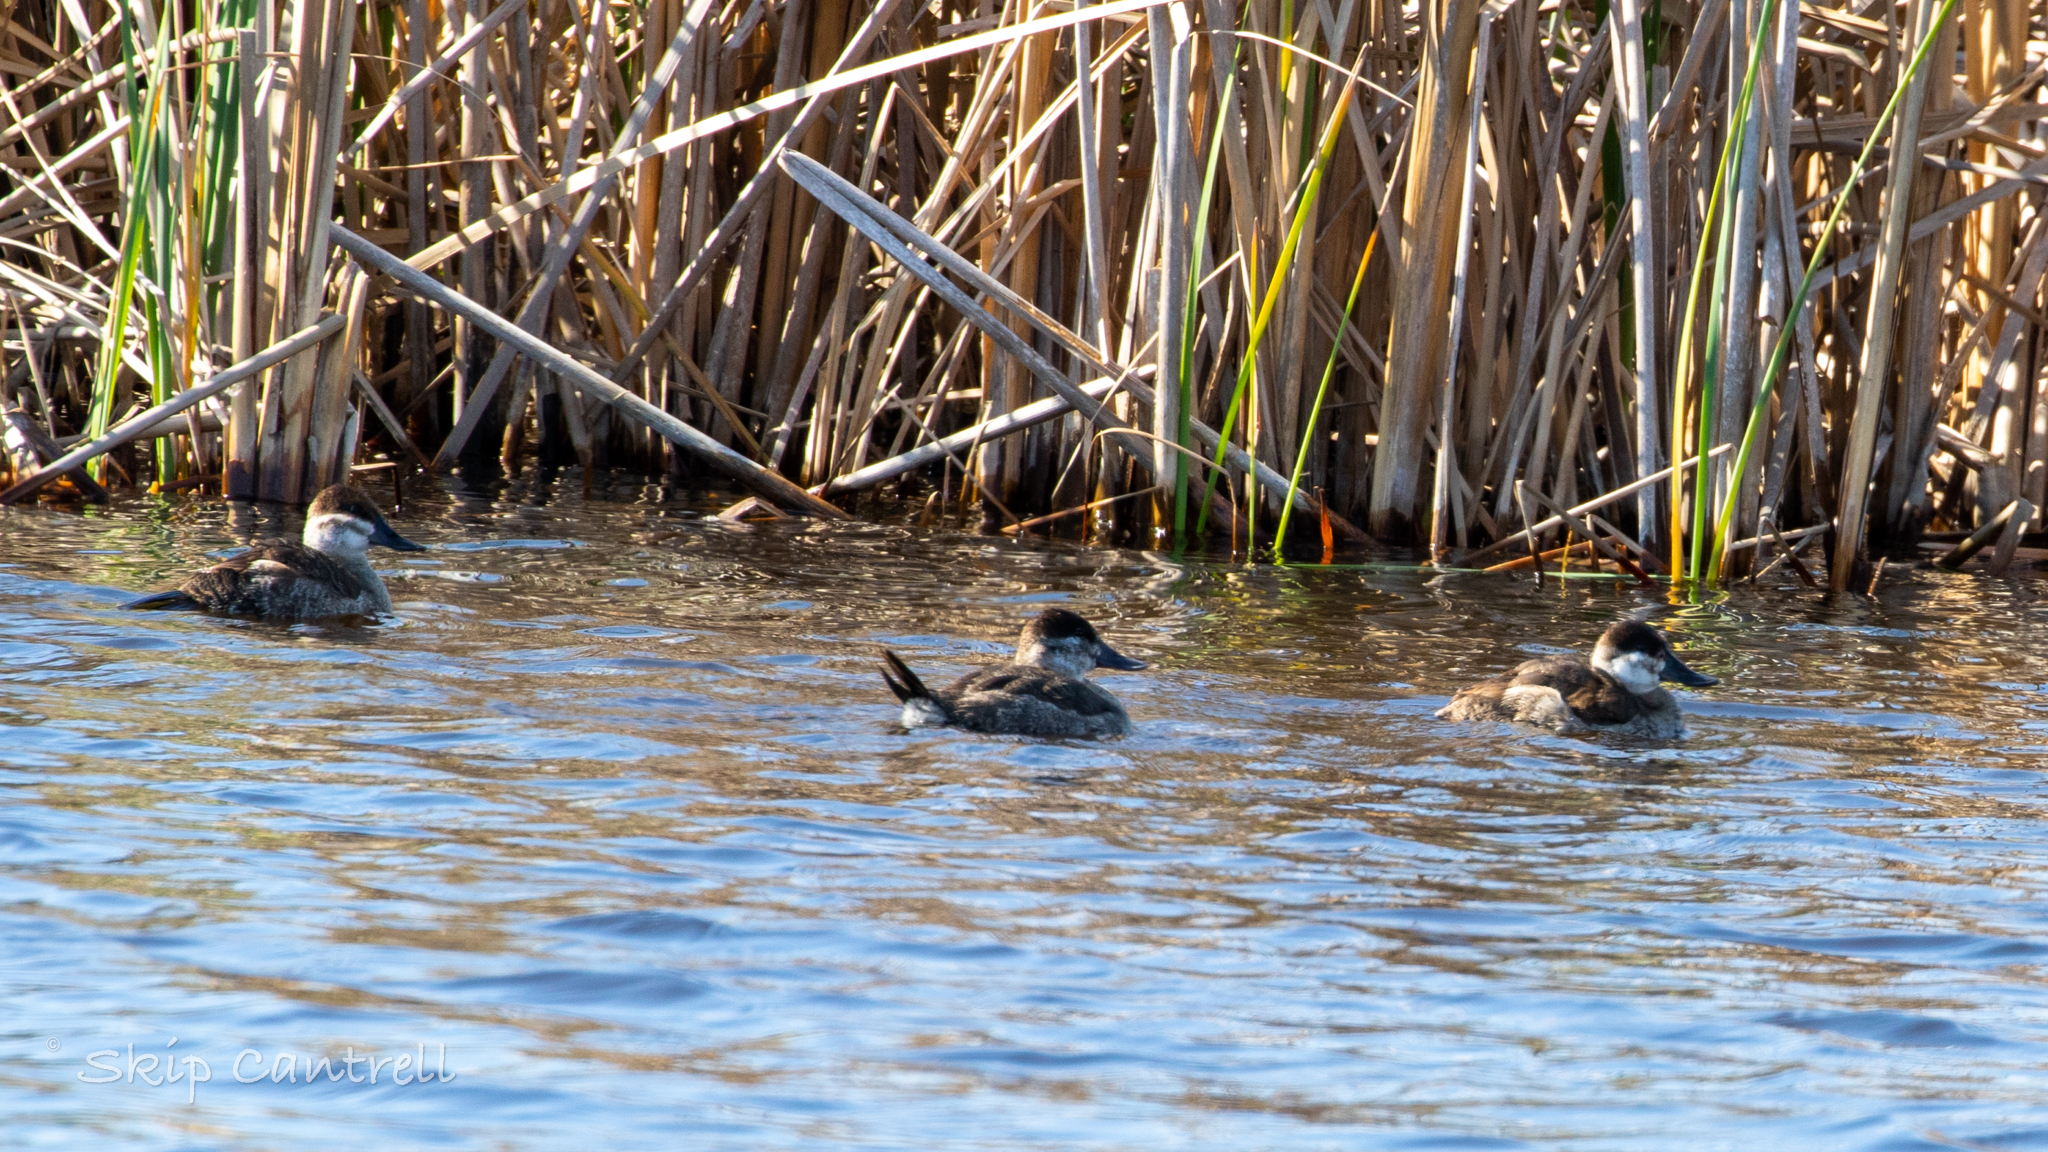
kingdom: Animalia
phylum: Chordata
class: Aves
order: Anseriformes
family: Anatidae
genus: Oxyura
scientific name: Oxyura jamaicensis
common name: Ruddy duck
